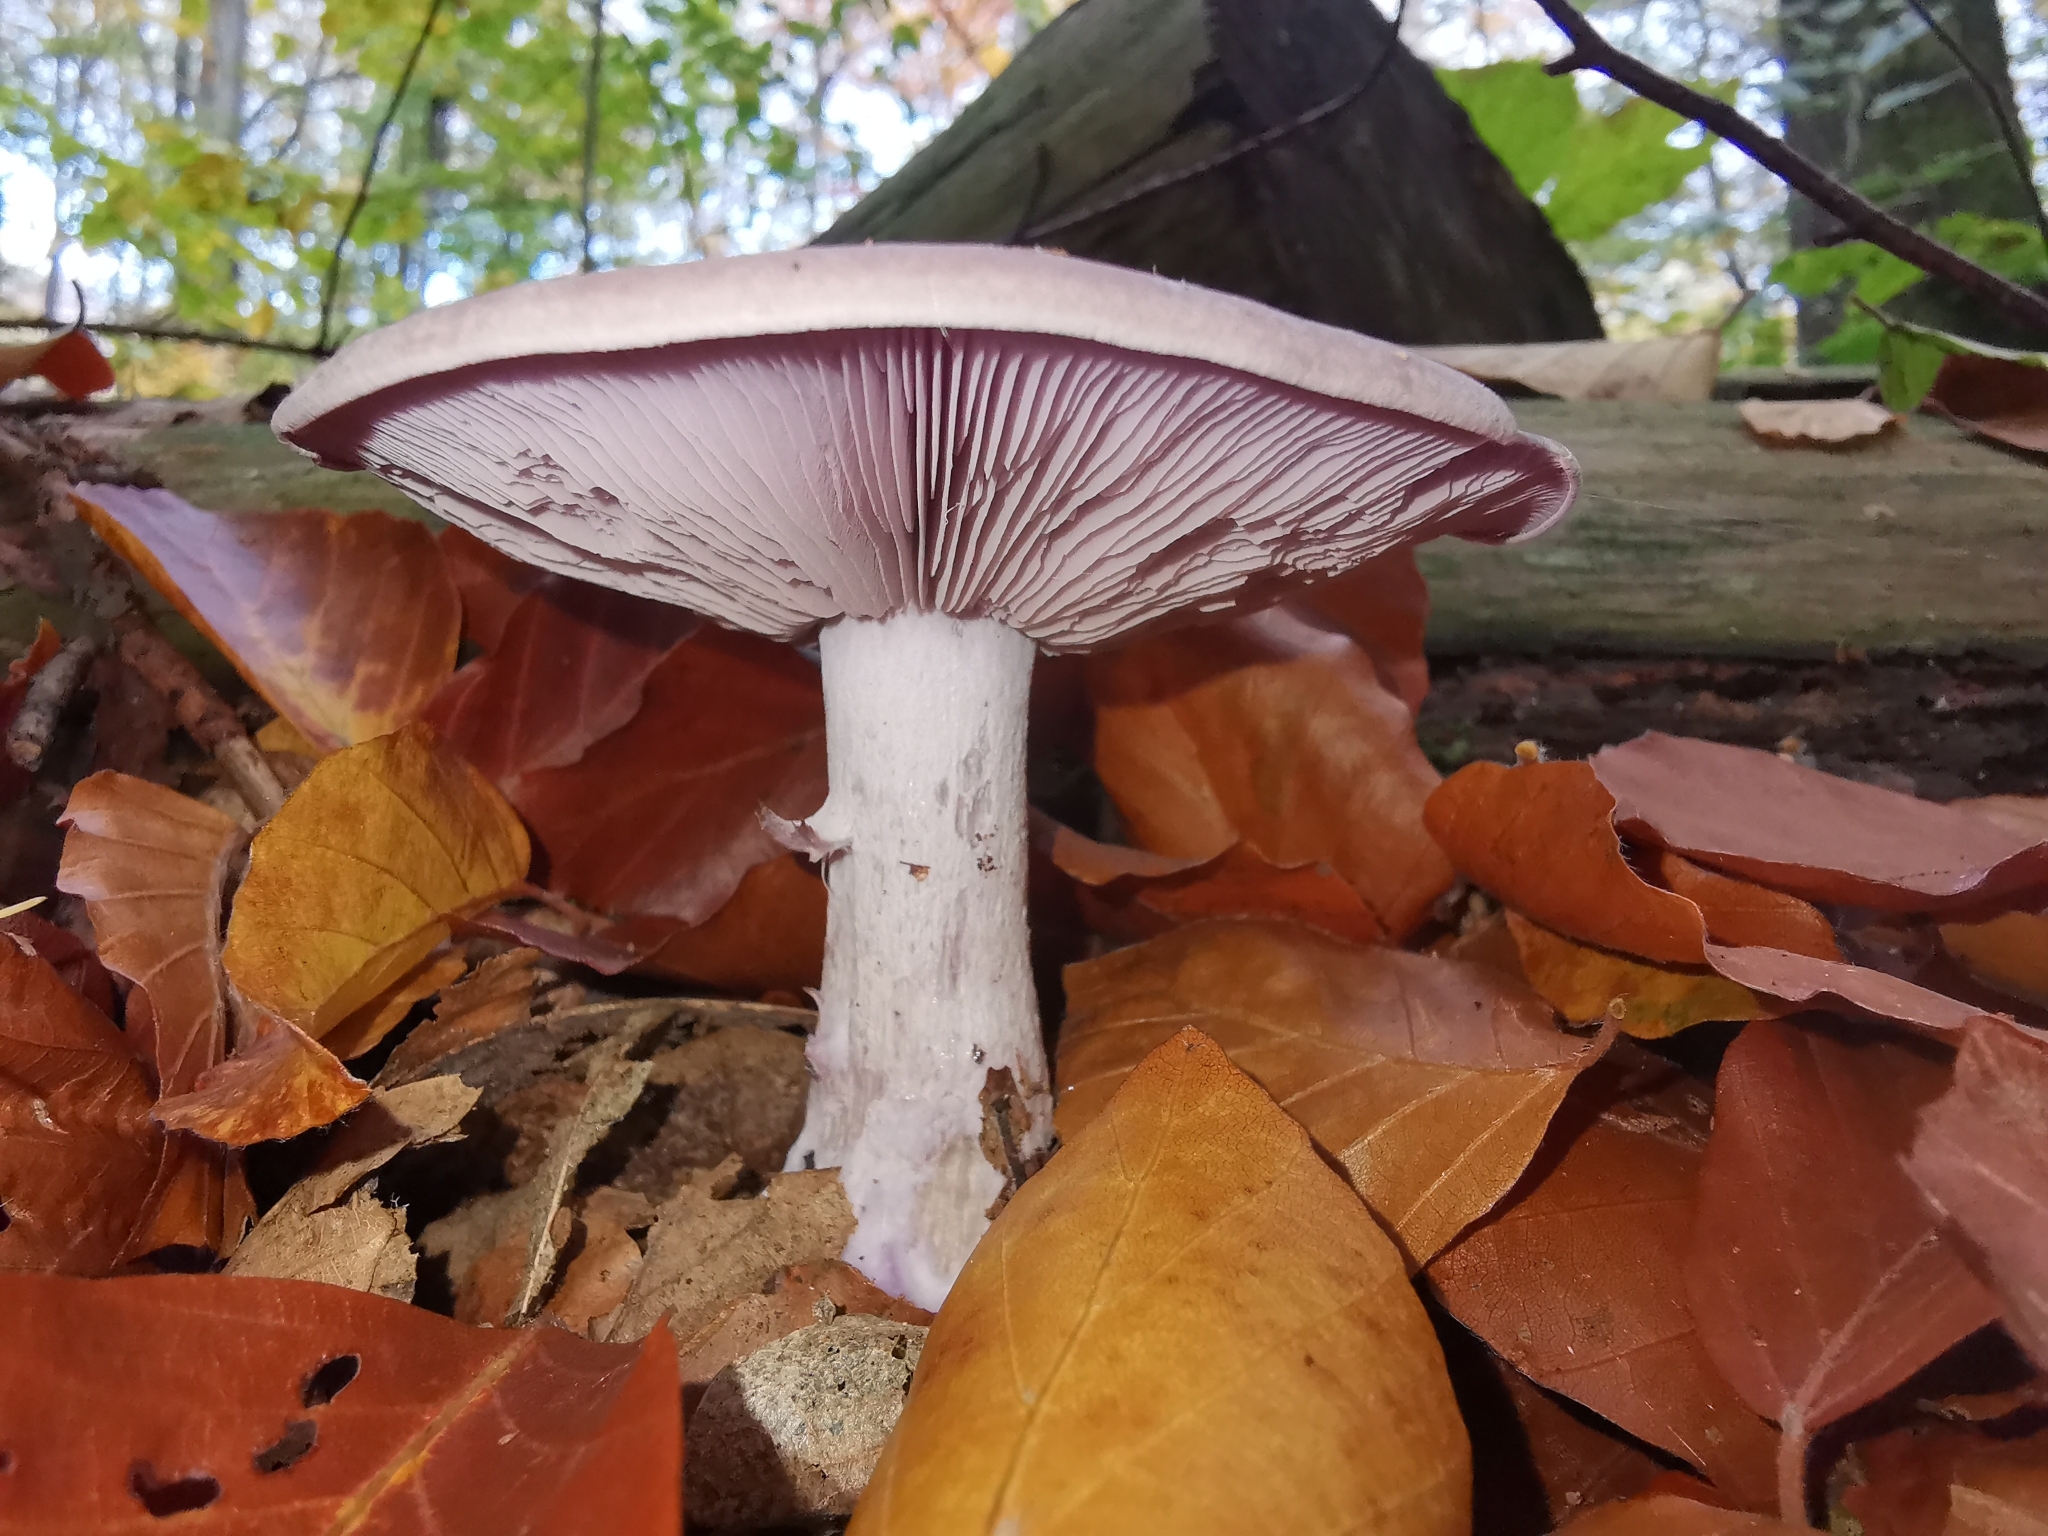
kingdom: Fungi
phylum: Basidiomycota
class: Agaricomycetes
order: Agaricales
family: Tricholomataceae
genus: Collybia
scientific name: Collybia
